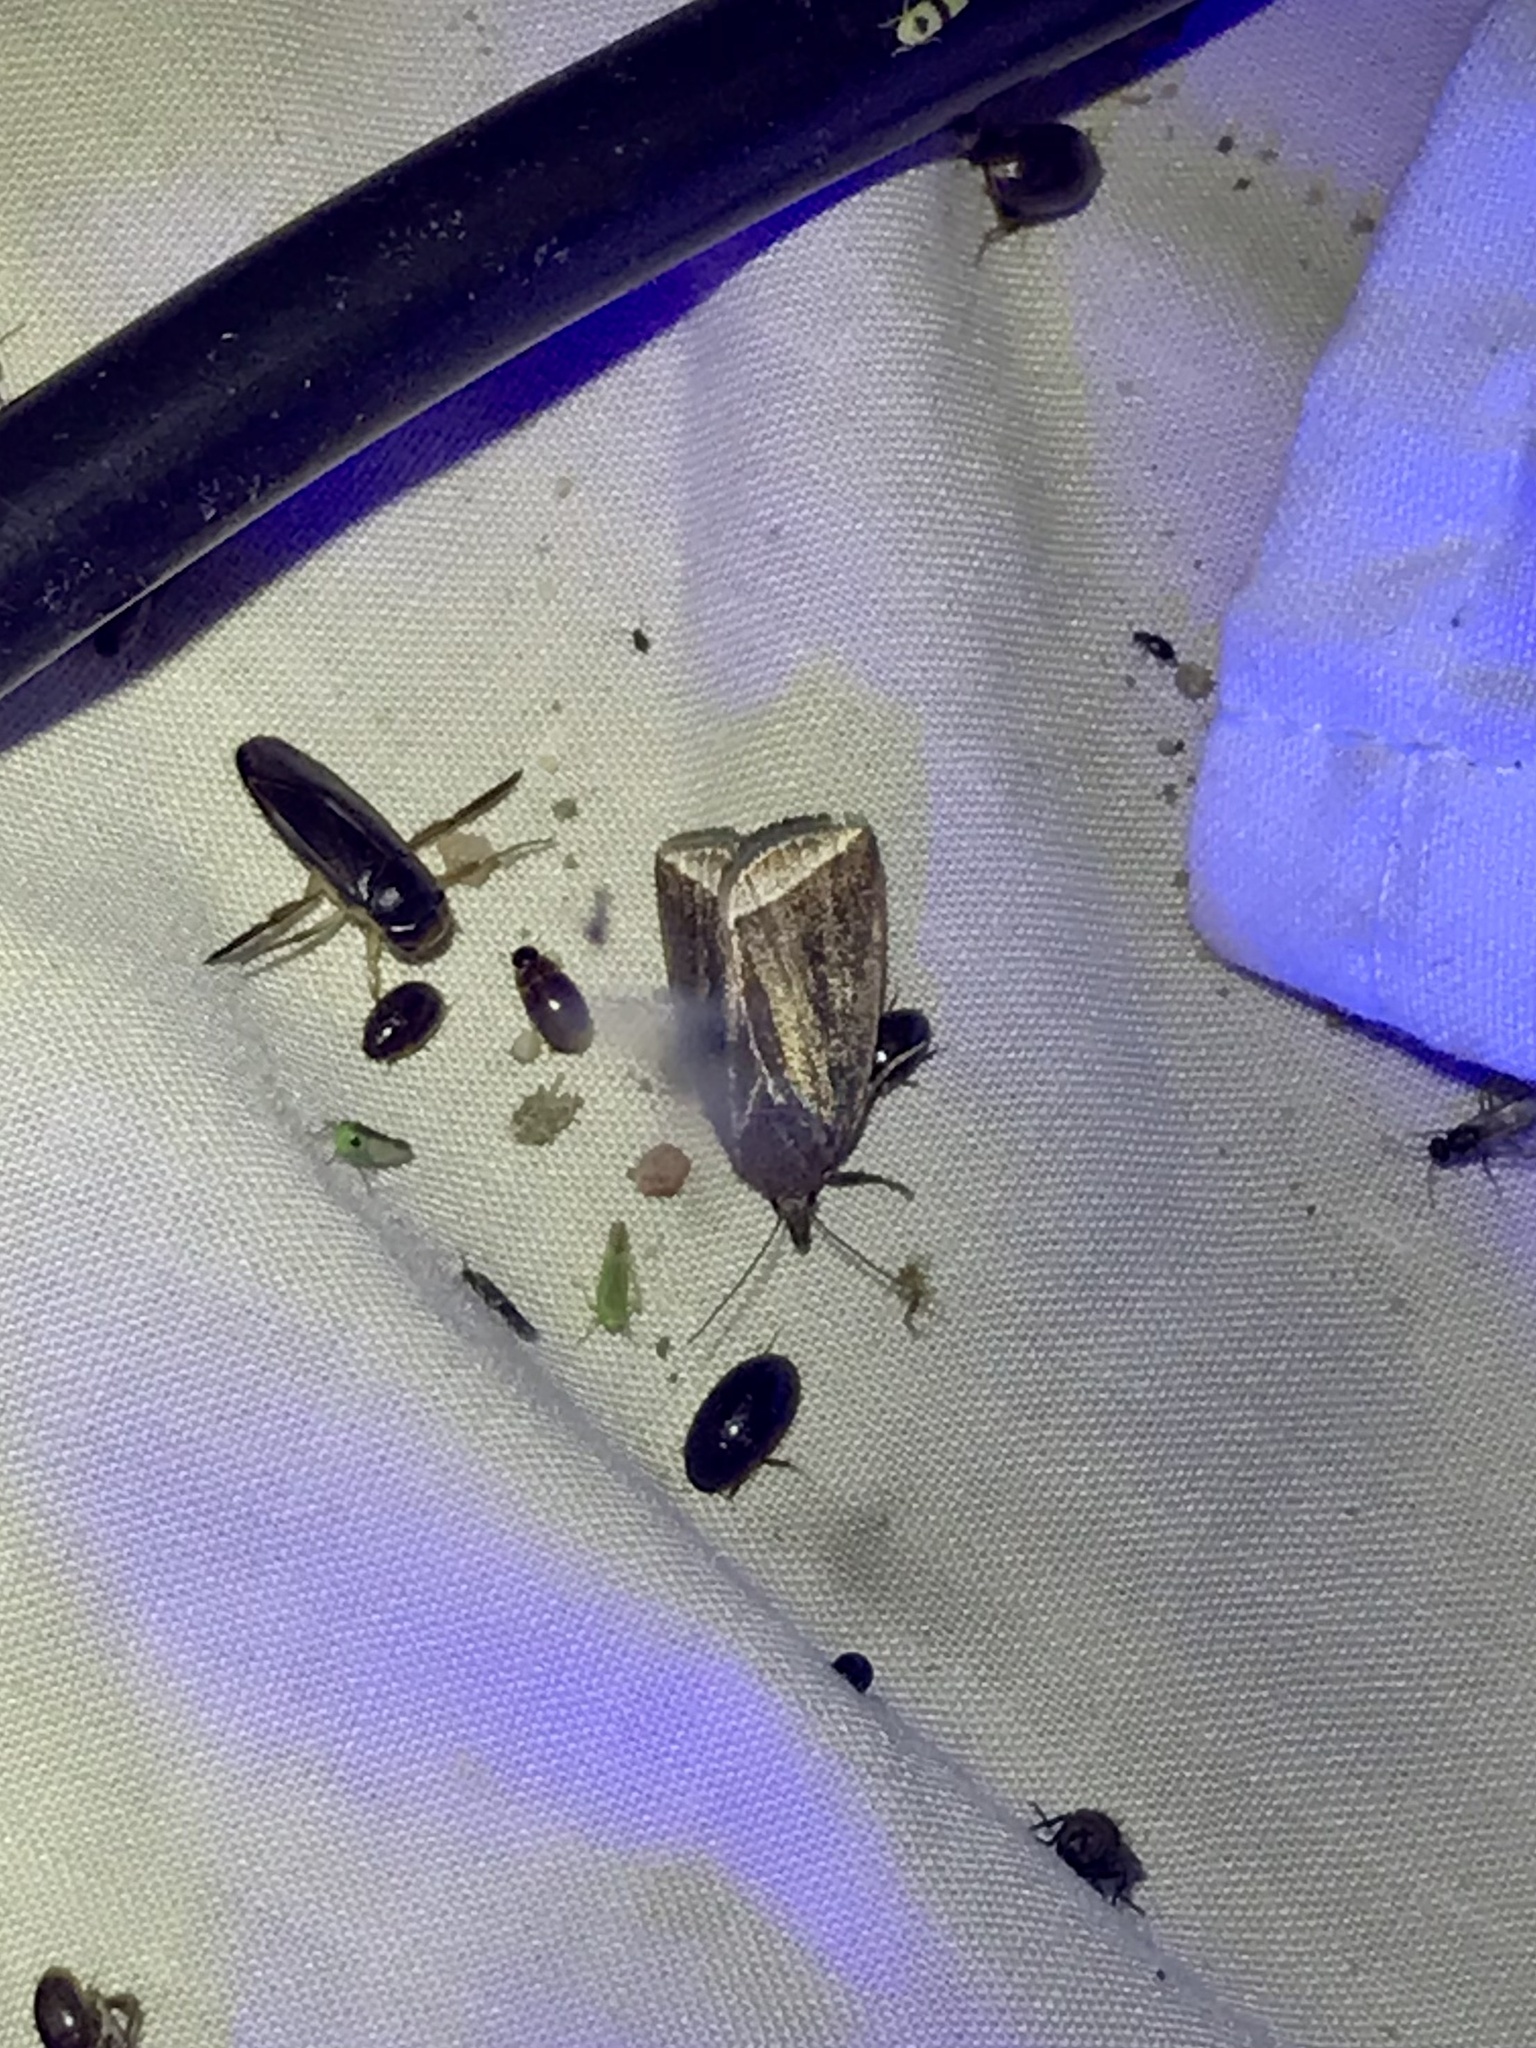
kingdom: Animalia
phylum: Arthropoda
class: Insecta
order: Lepidoptera
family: Erebidae
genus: Capis
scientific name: Capis curvata
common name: Curved halter moth
